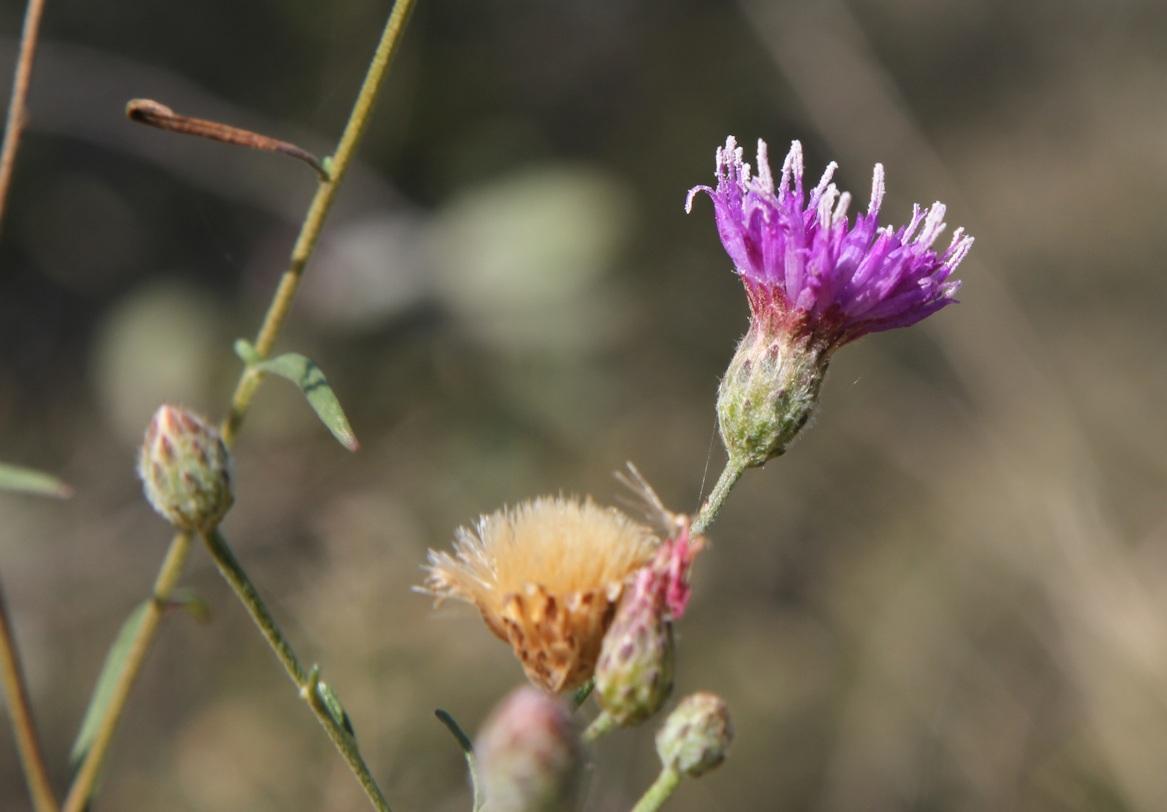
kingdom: Plantae
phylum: Tracheophyta
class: Magnoliopsida
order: Asterales
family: Asteraceae
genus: Crystallopollen
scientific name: Crystallopollen angustifolium
